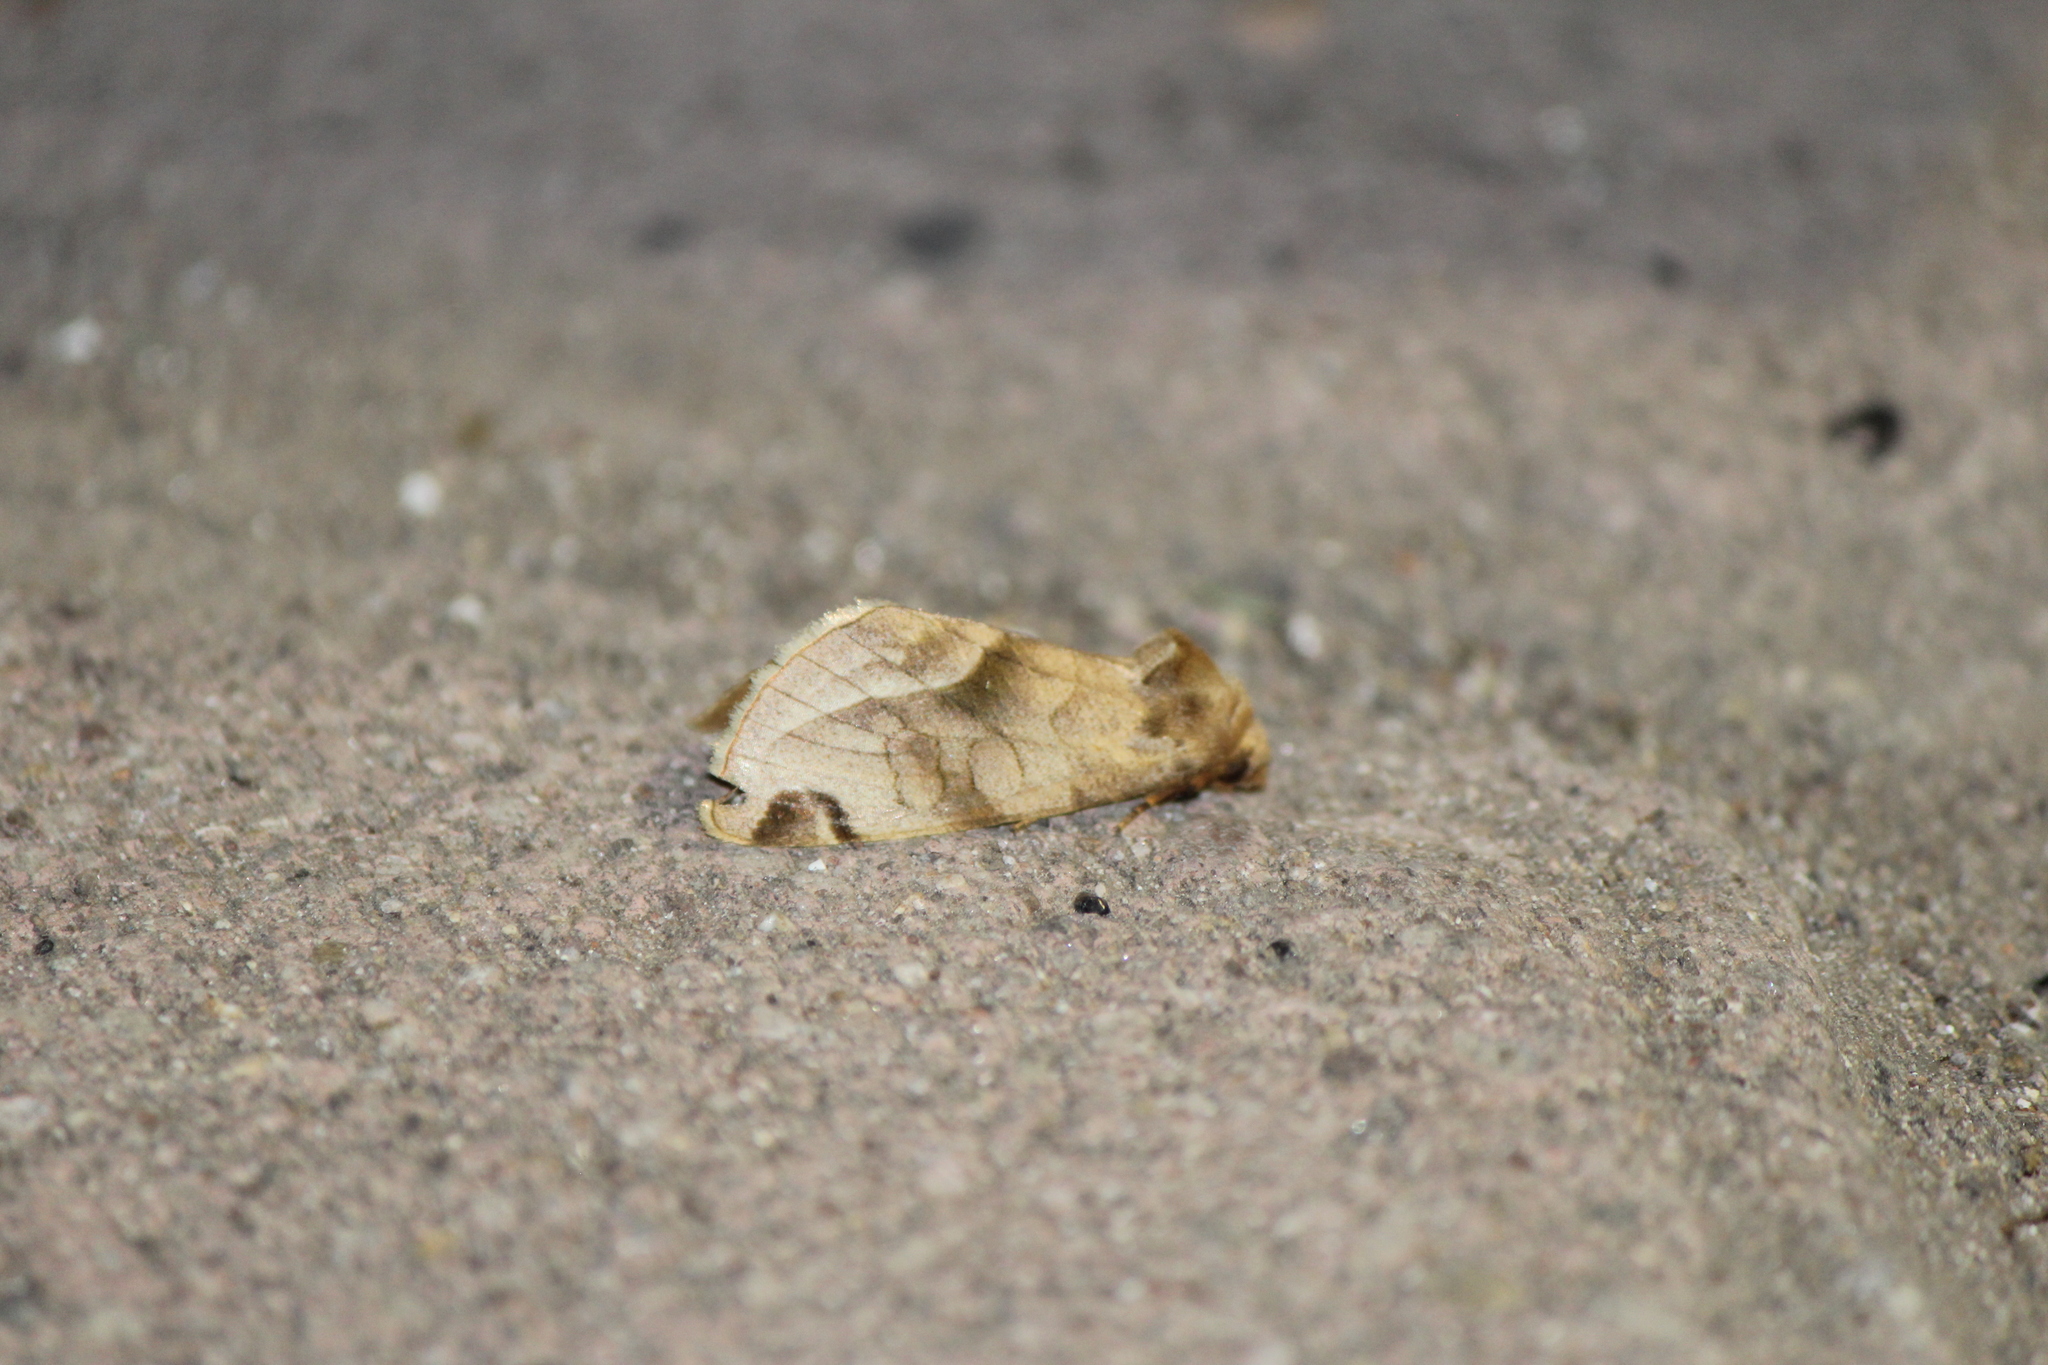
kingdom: Animalia
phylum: Arthropoda
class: Insecta
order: Lepidoptera
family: Noctuidae
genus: Plagiomimicus
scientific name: Plagiomimicus
